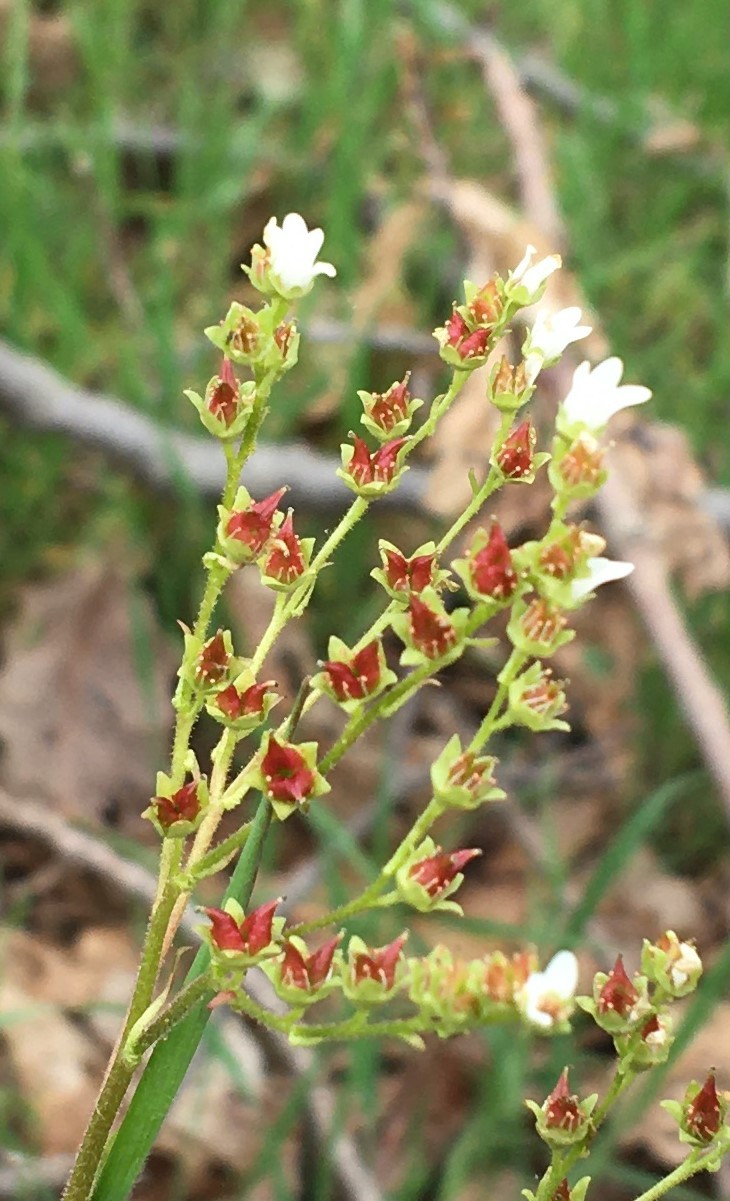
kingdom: Plantae
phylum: Tracheophyta
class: Magnoliopsida
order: Saxifragales
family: Saxifragaceae
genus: Micranthes
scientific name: Micranthes virginiensis
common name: Early saxifrage
